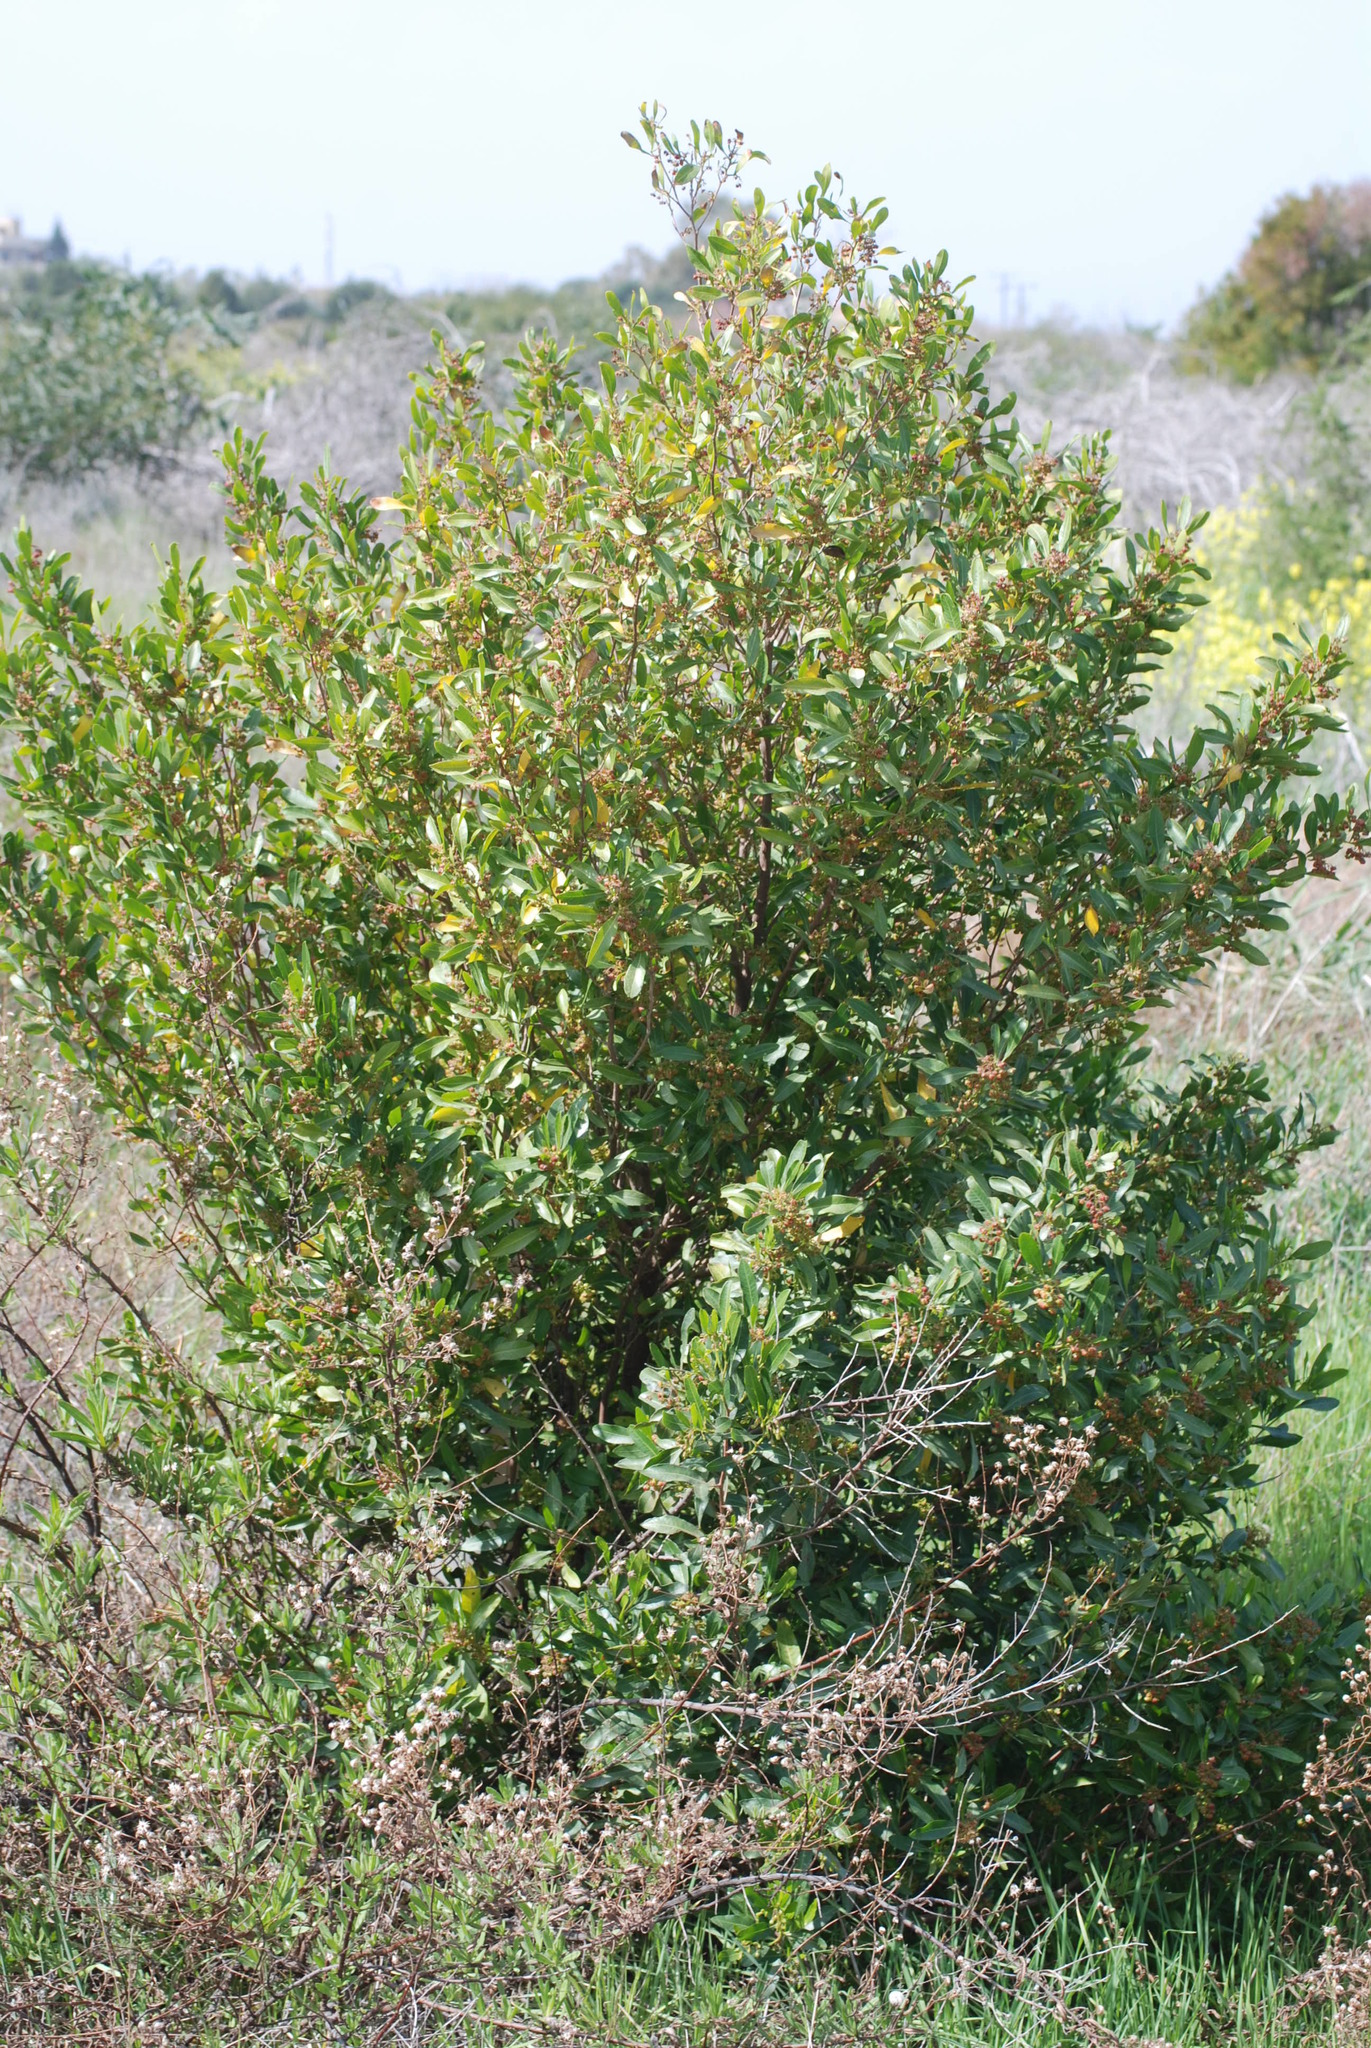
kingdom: Plantae
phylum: Tracheophyta
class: Magnoliopsida
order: Sapindales
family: Sapindaceae
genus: Dodonaea
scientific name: Dodonaea viscosa
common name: Hopbush
